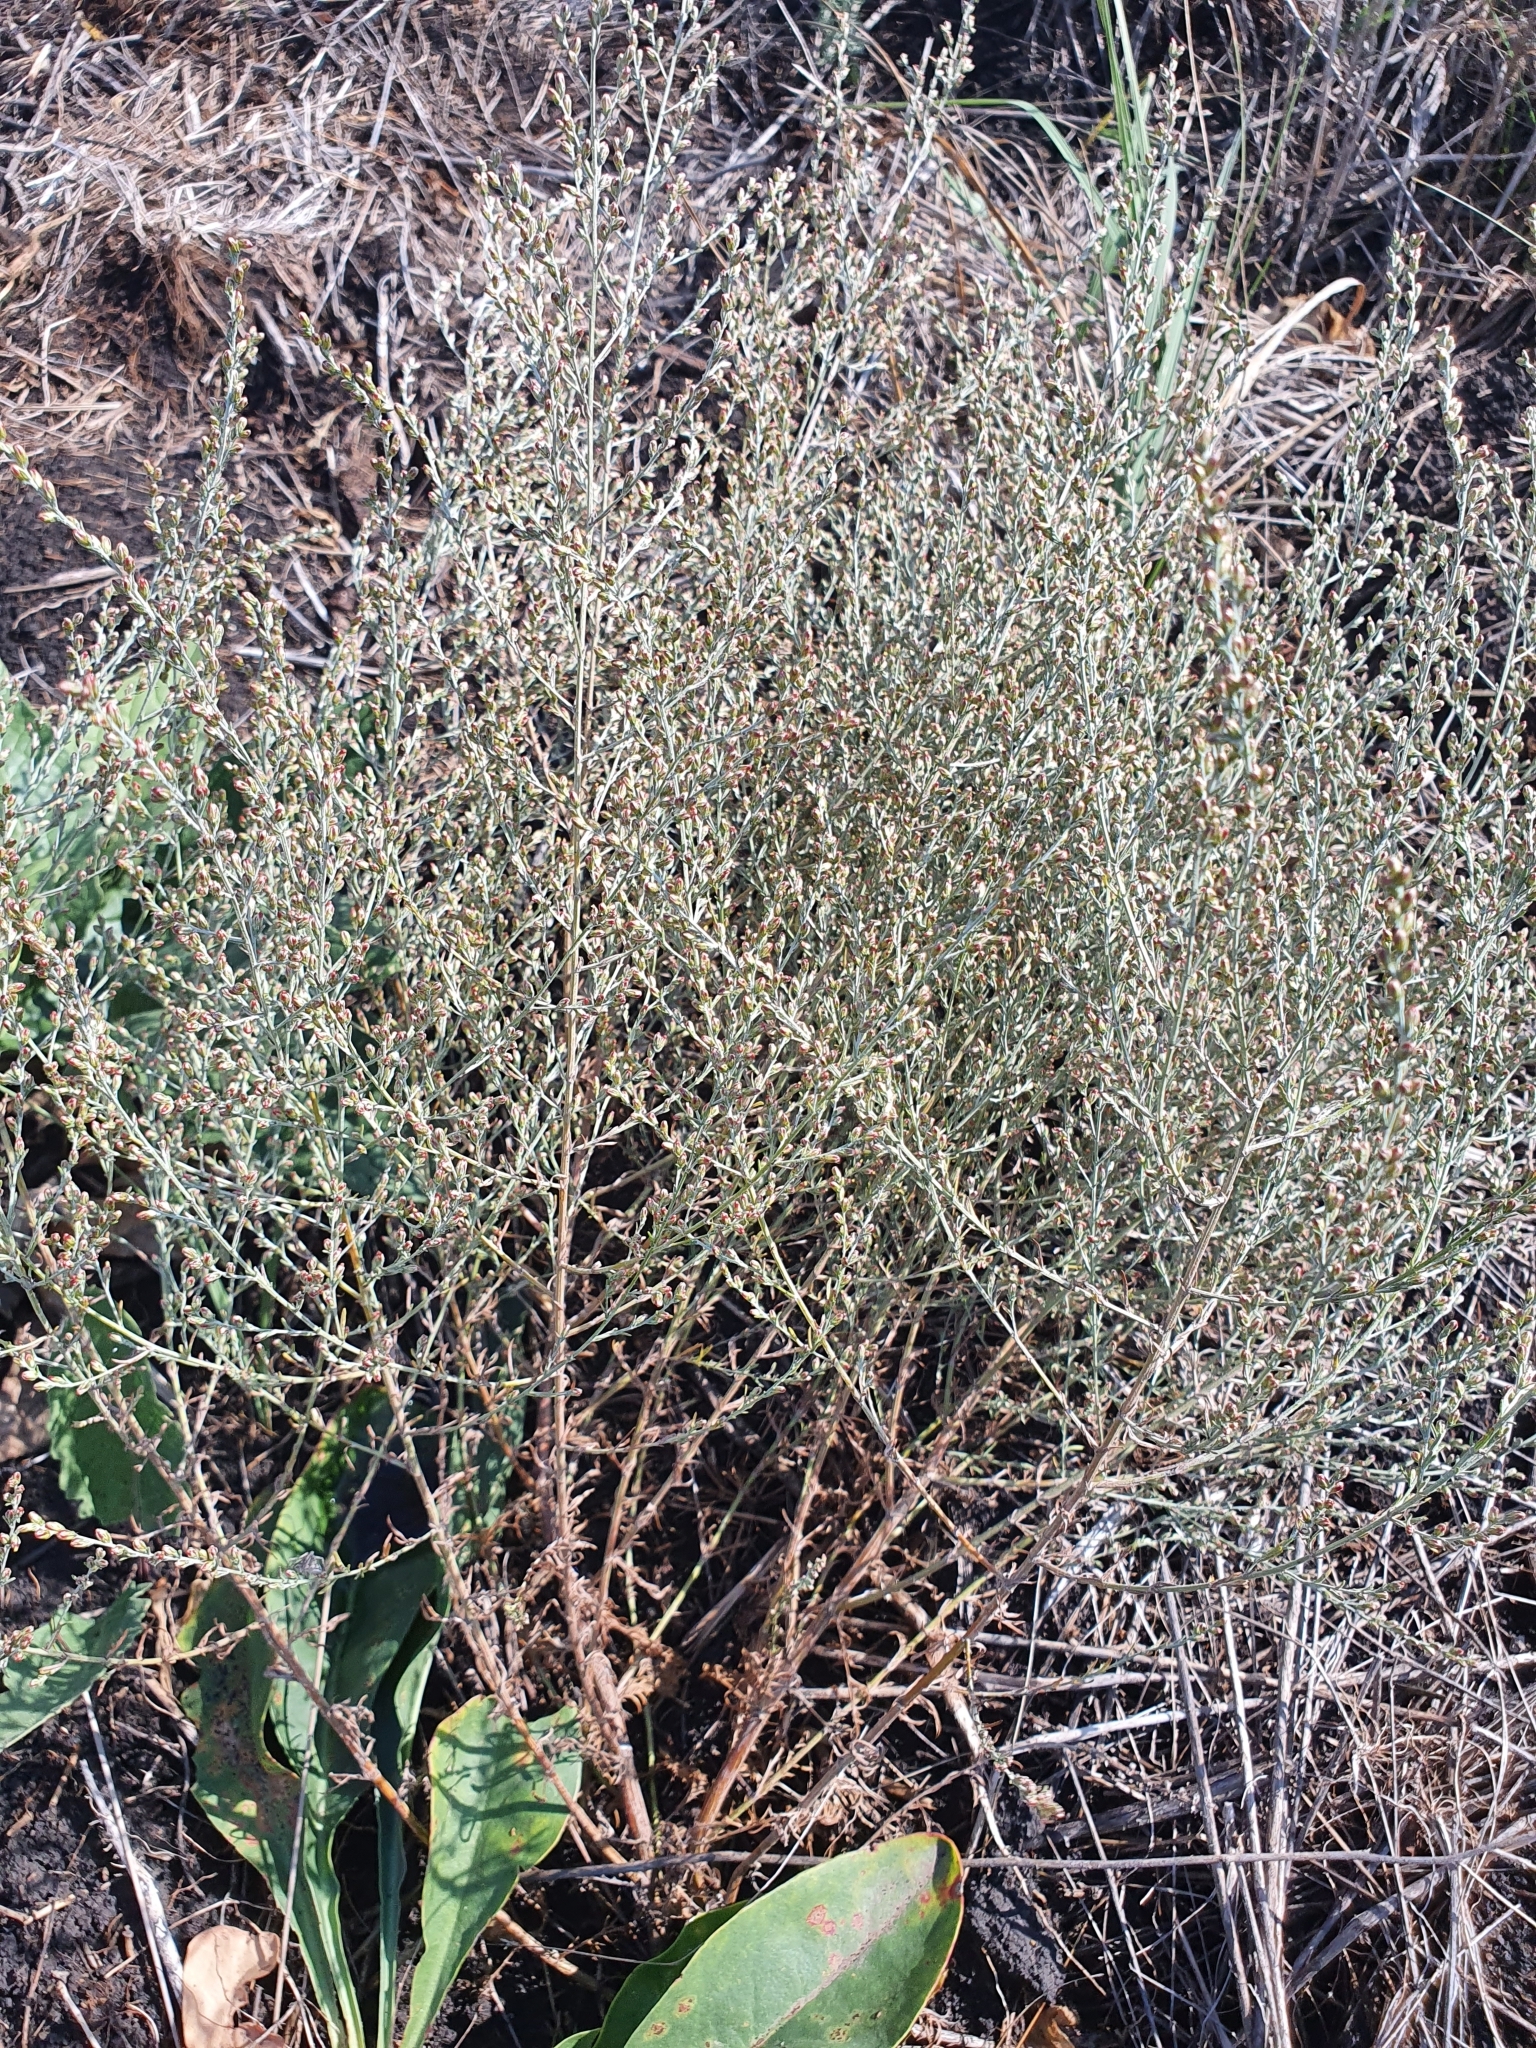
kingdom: Plantae
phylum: Tracheophyta
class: Magnoliopsida
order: Asterales
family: Asteraceae
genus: Artemisia
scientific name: Artemisia nitrosa
